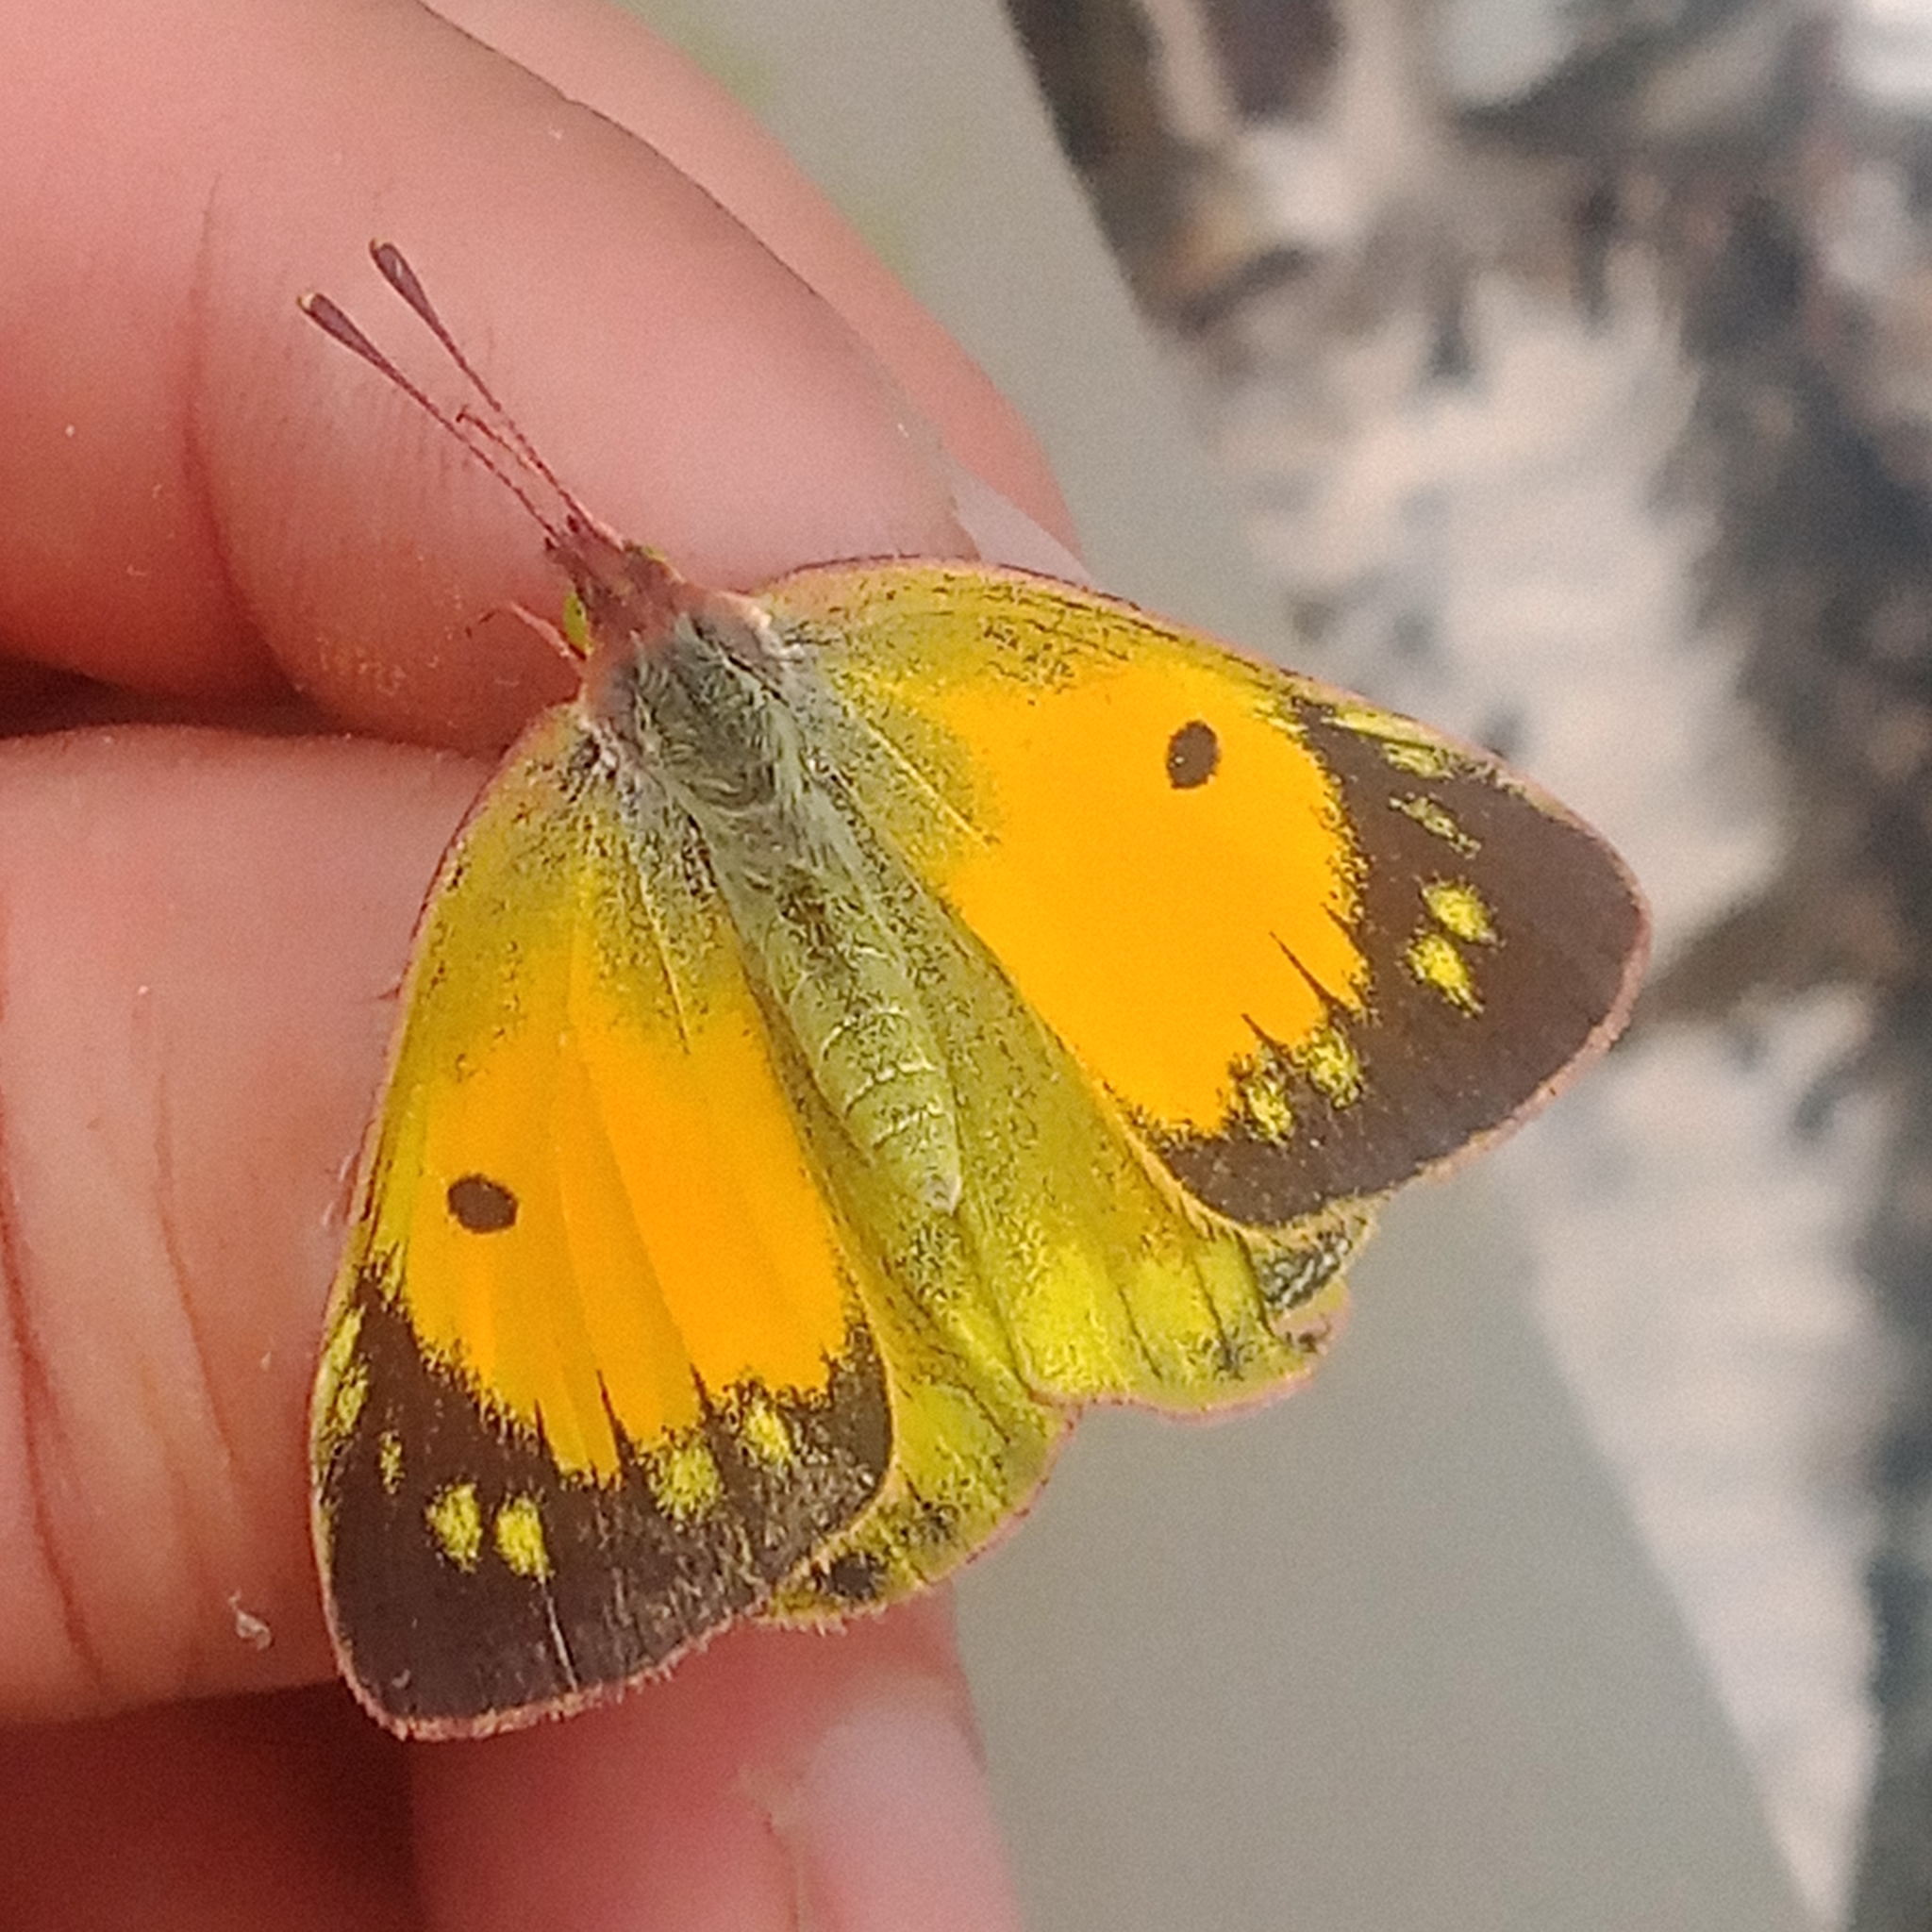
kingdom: Animalia
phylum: Arthropoda
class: Insecta
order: Lepidoptera
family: Pieridae
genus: Colias
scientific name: Colias myrmidone
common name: Danube clouded yellow
